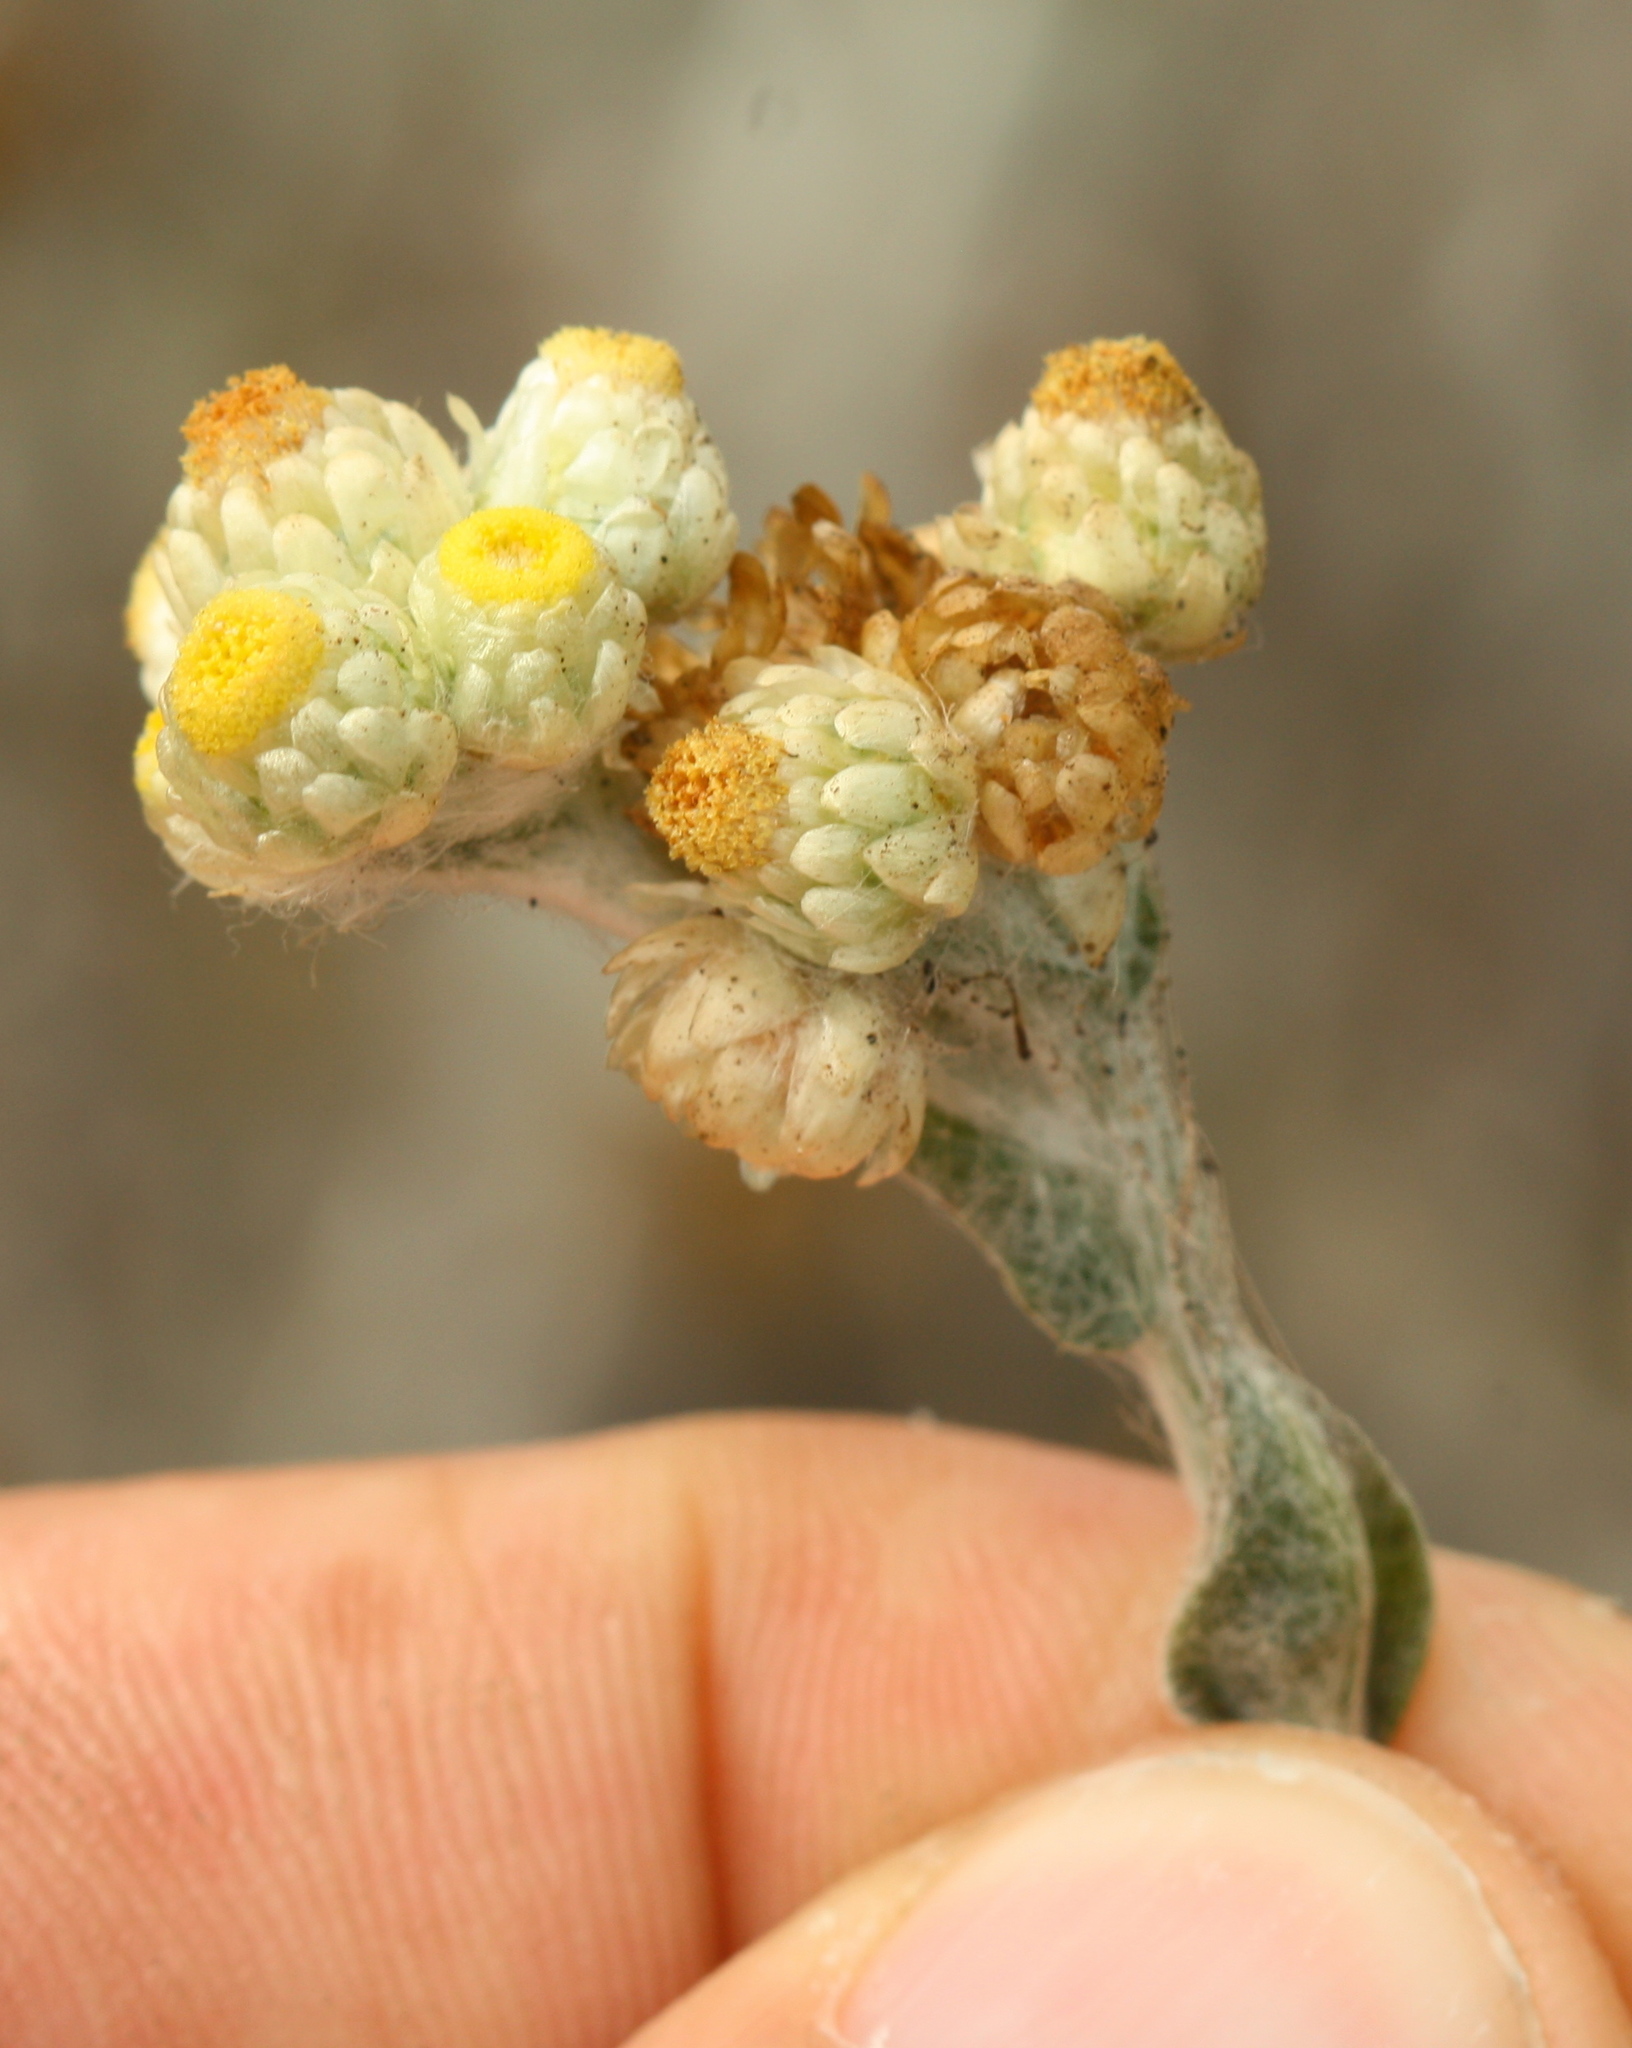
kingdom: Plantae
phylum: Tracheophyta
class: Magnoliopsida
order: Asterales
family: Asteraceae
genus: Pseudognaphalium
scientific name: Pseudognaphalium stramineum
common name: Cotton-batting-plant
